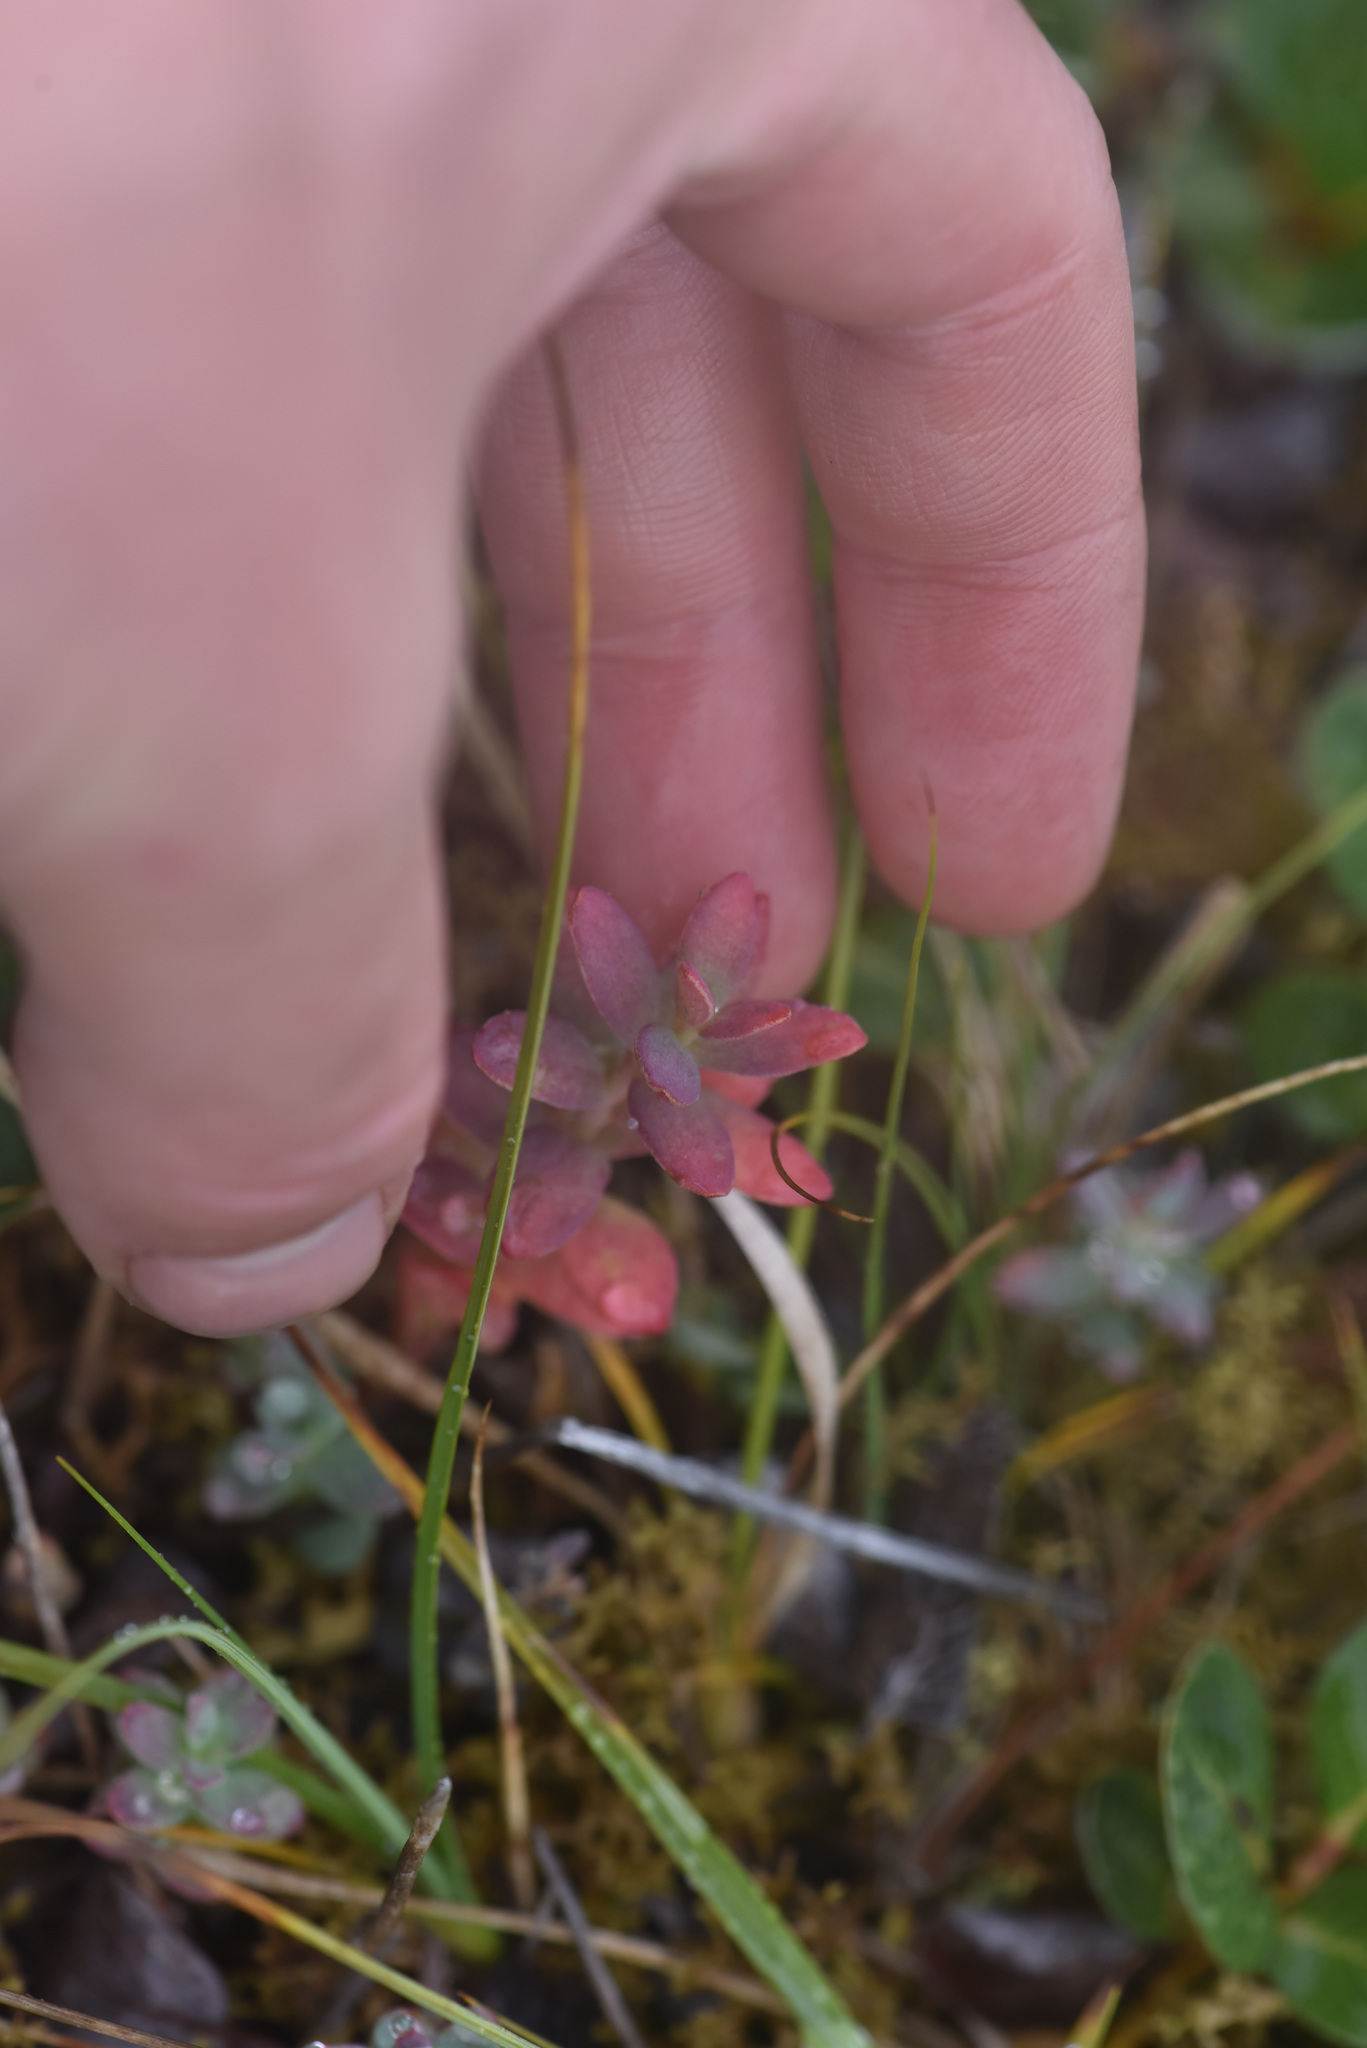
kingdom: Plantae
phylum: Tracheophyta
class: Magnoliopsida
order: Saxifragales
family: Crassulaceae
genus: Rhodiola
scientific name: Rhodiola integrifolia
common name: Western roseroot
